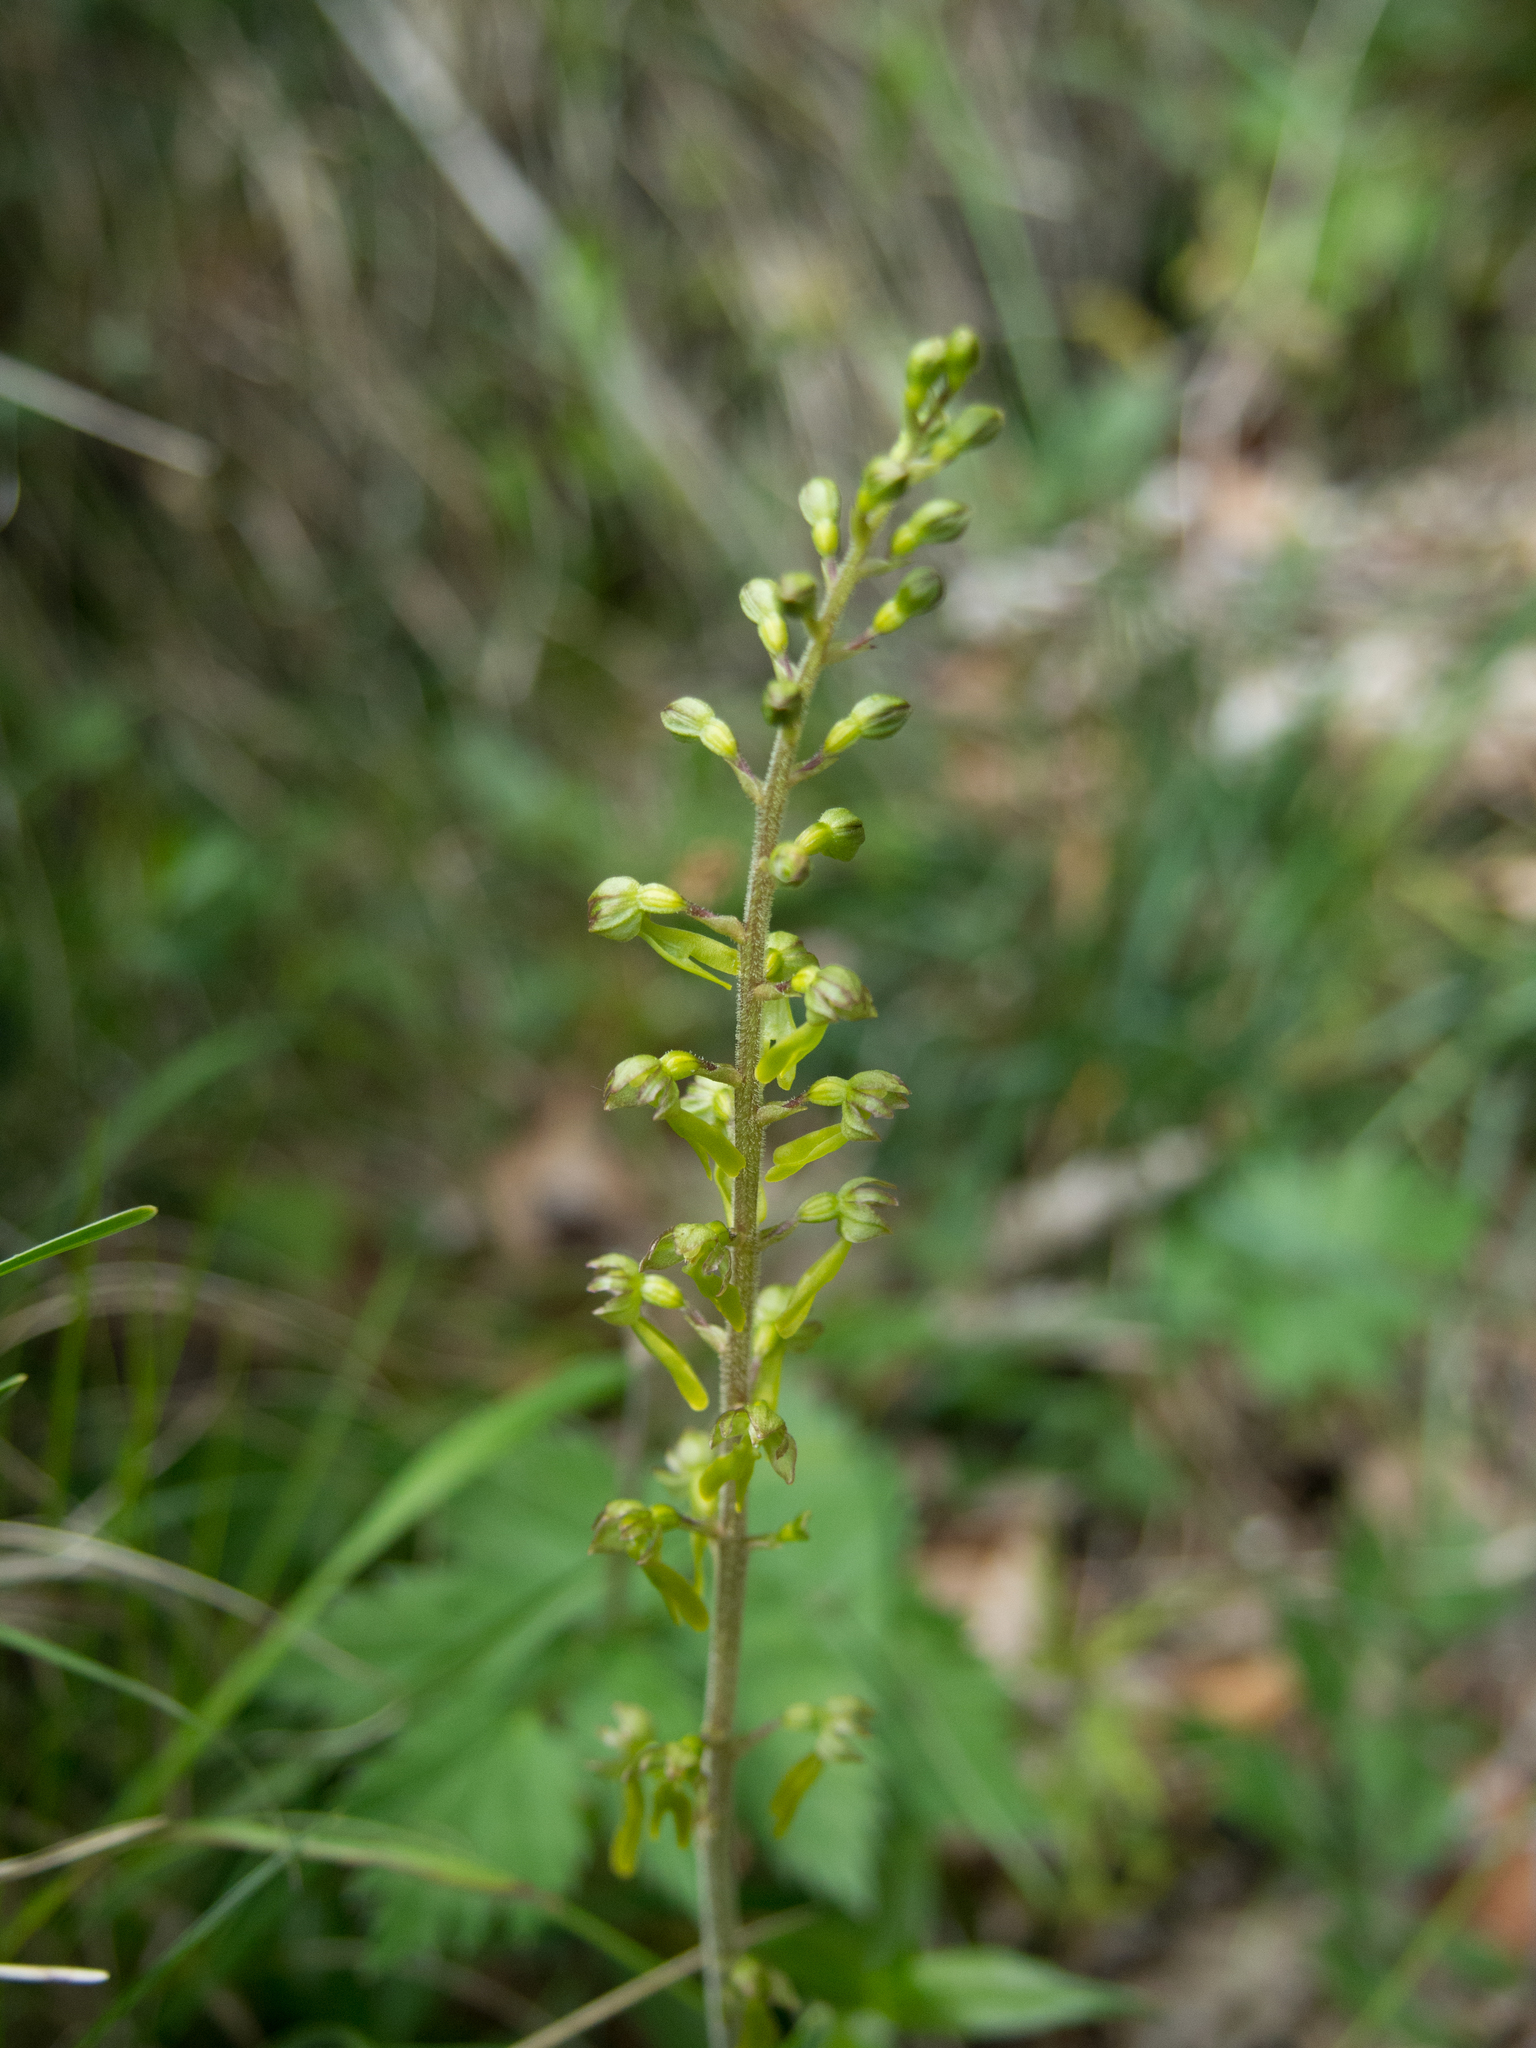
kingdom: Plantae
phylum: Tracheophyta
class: Liliopsida
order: Asparagales
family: Orchidaceae
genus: Neottia
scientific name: Neottia ovata
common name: Common twayblade
